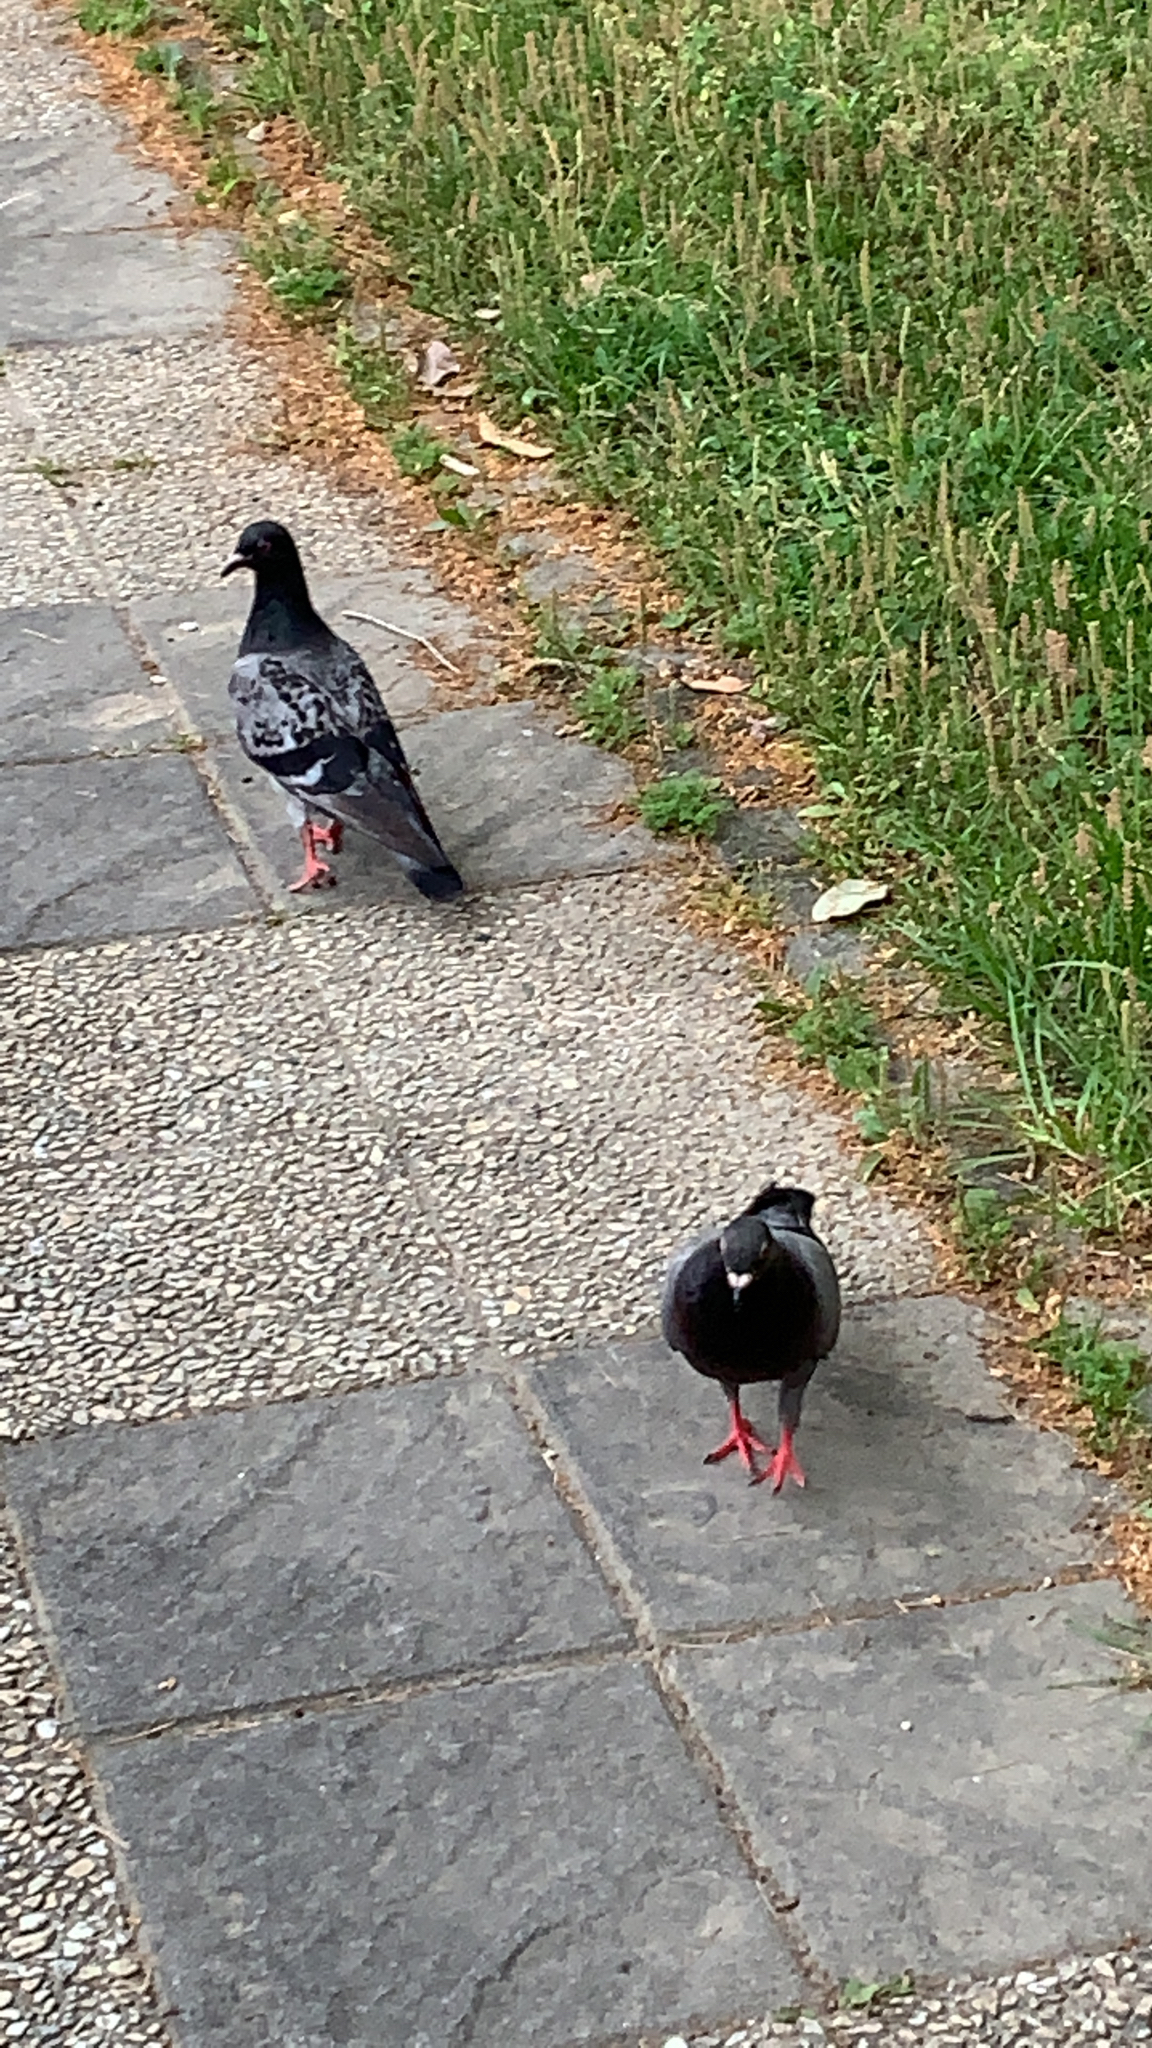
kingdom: Animalia
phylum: Chordata
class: Aves
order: Columbiformes
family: Columbidae
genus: Columba
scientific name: Columba livia
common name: Rock pigeon
